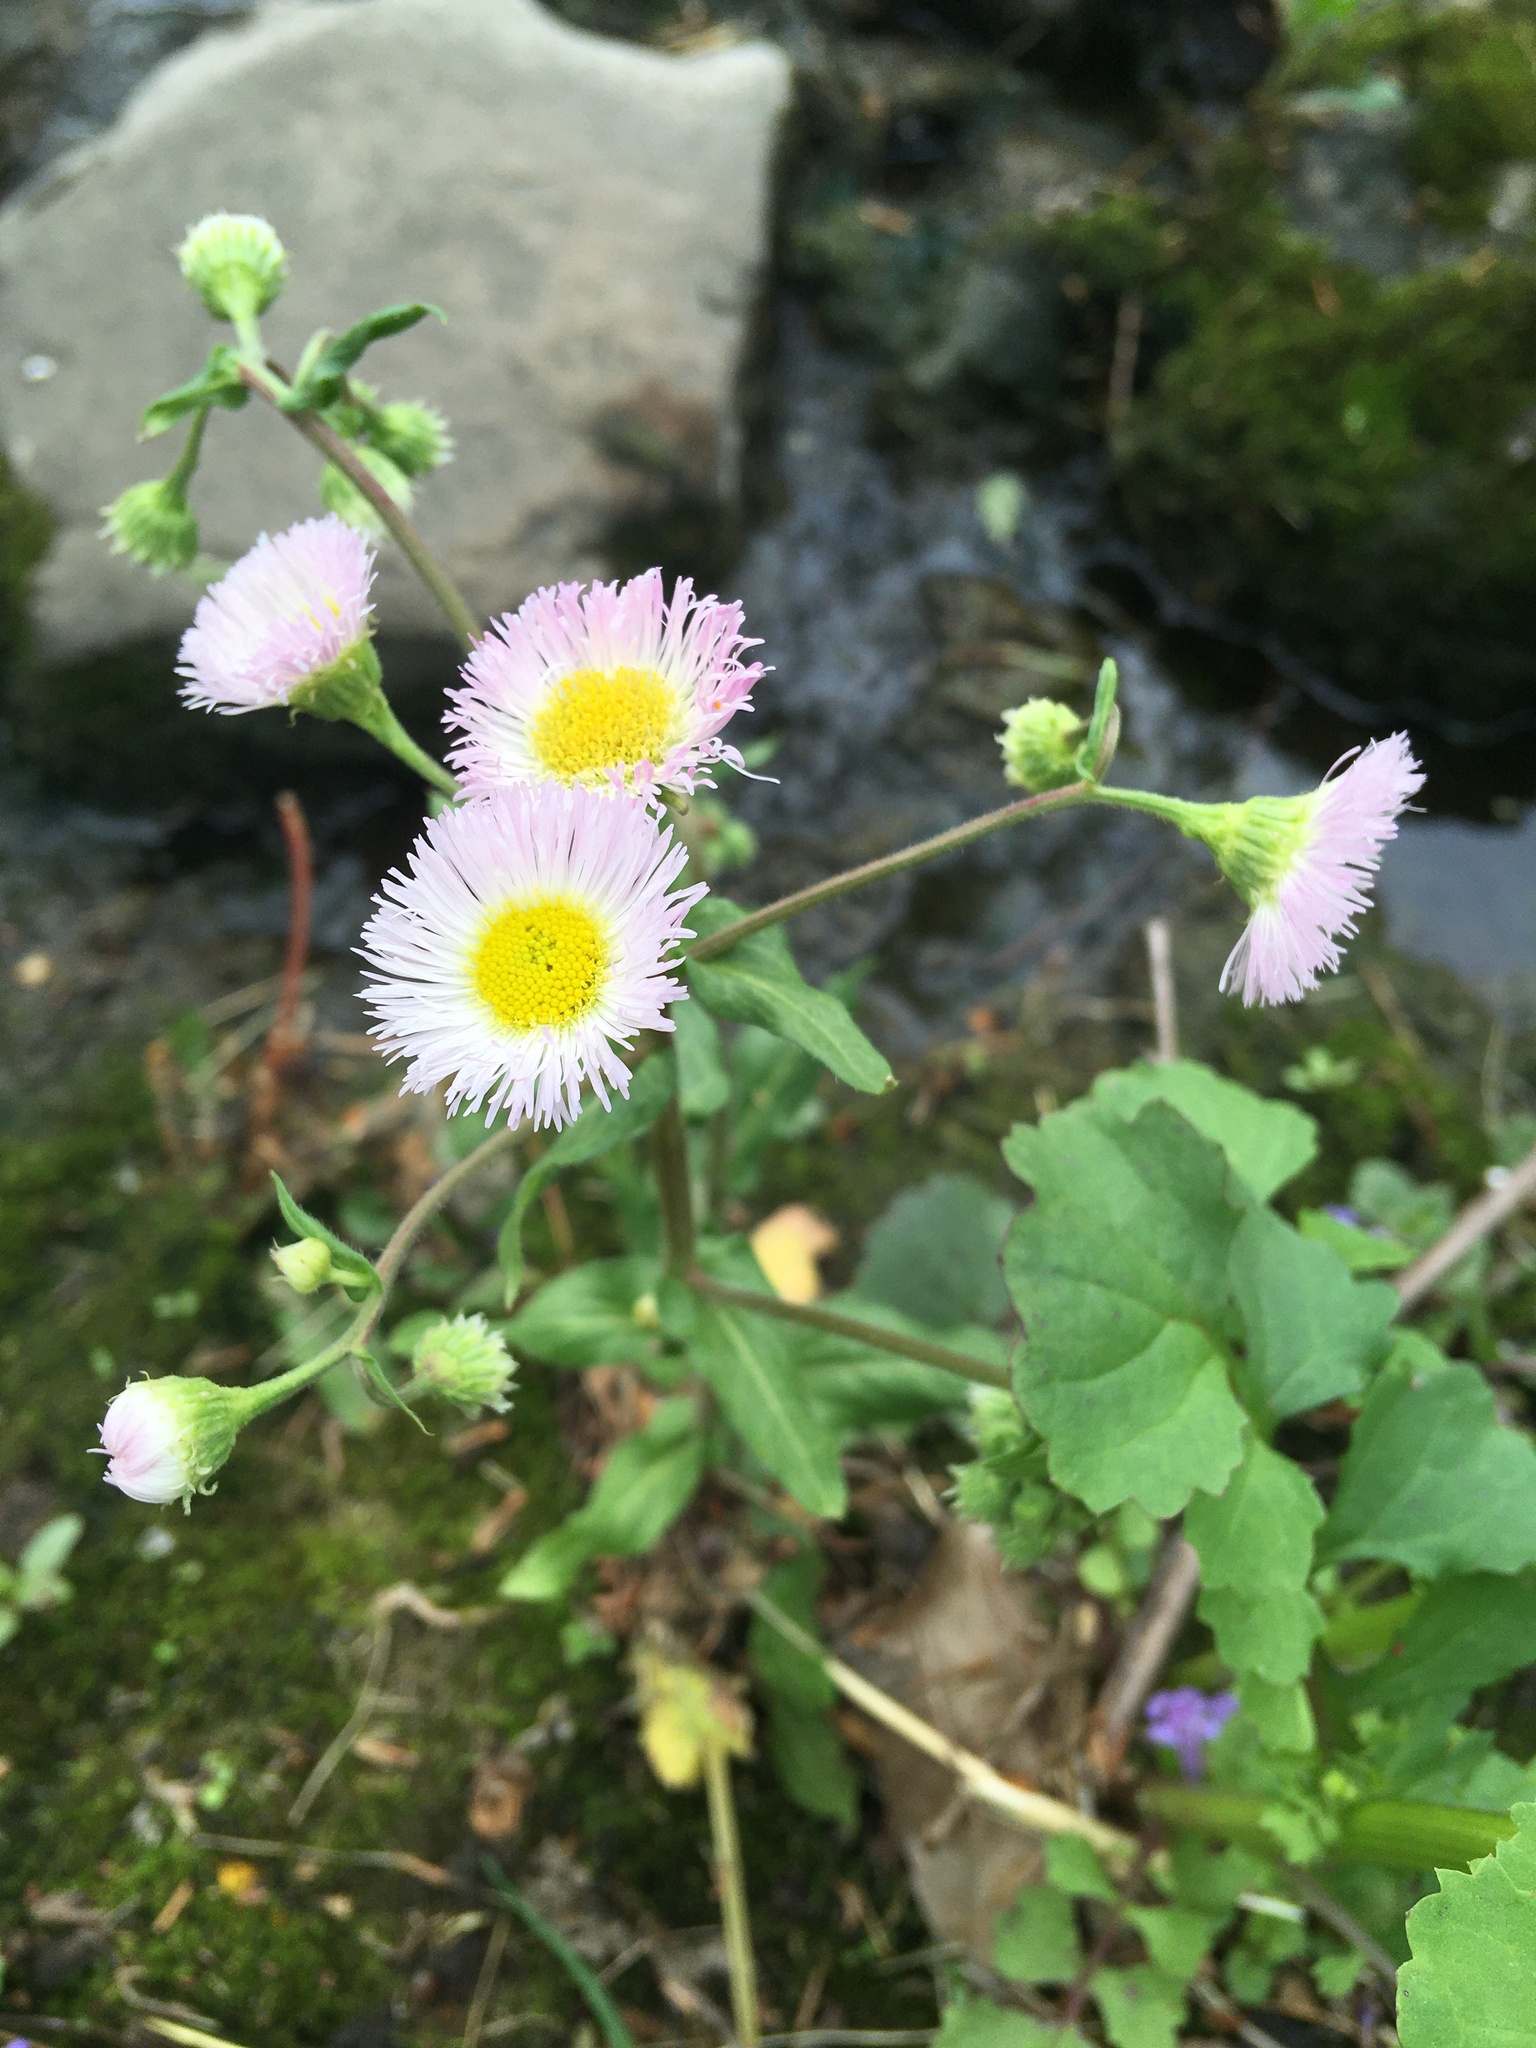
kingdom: Plantae
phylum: Tracheophyta
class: Magnoliopsida
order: Asterales
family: Asteraceae
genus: Erigeron
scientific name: Erigeron philadelphicus
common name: Robin's-plantain
